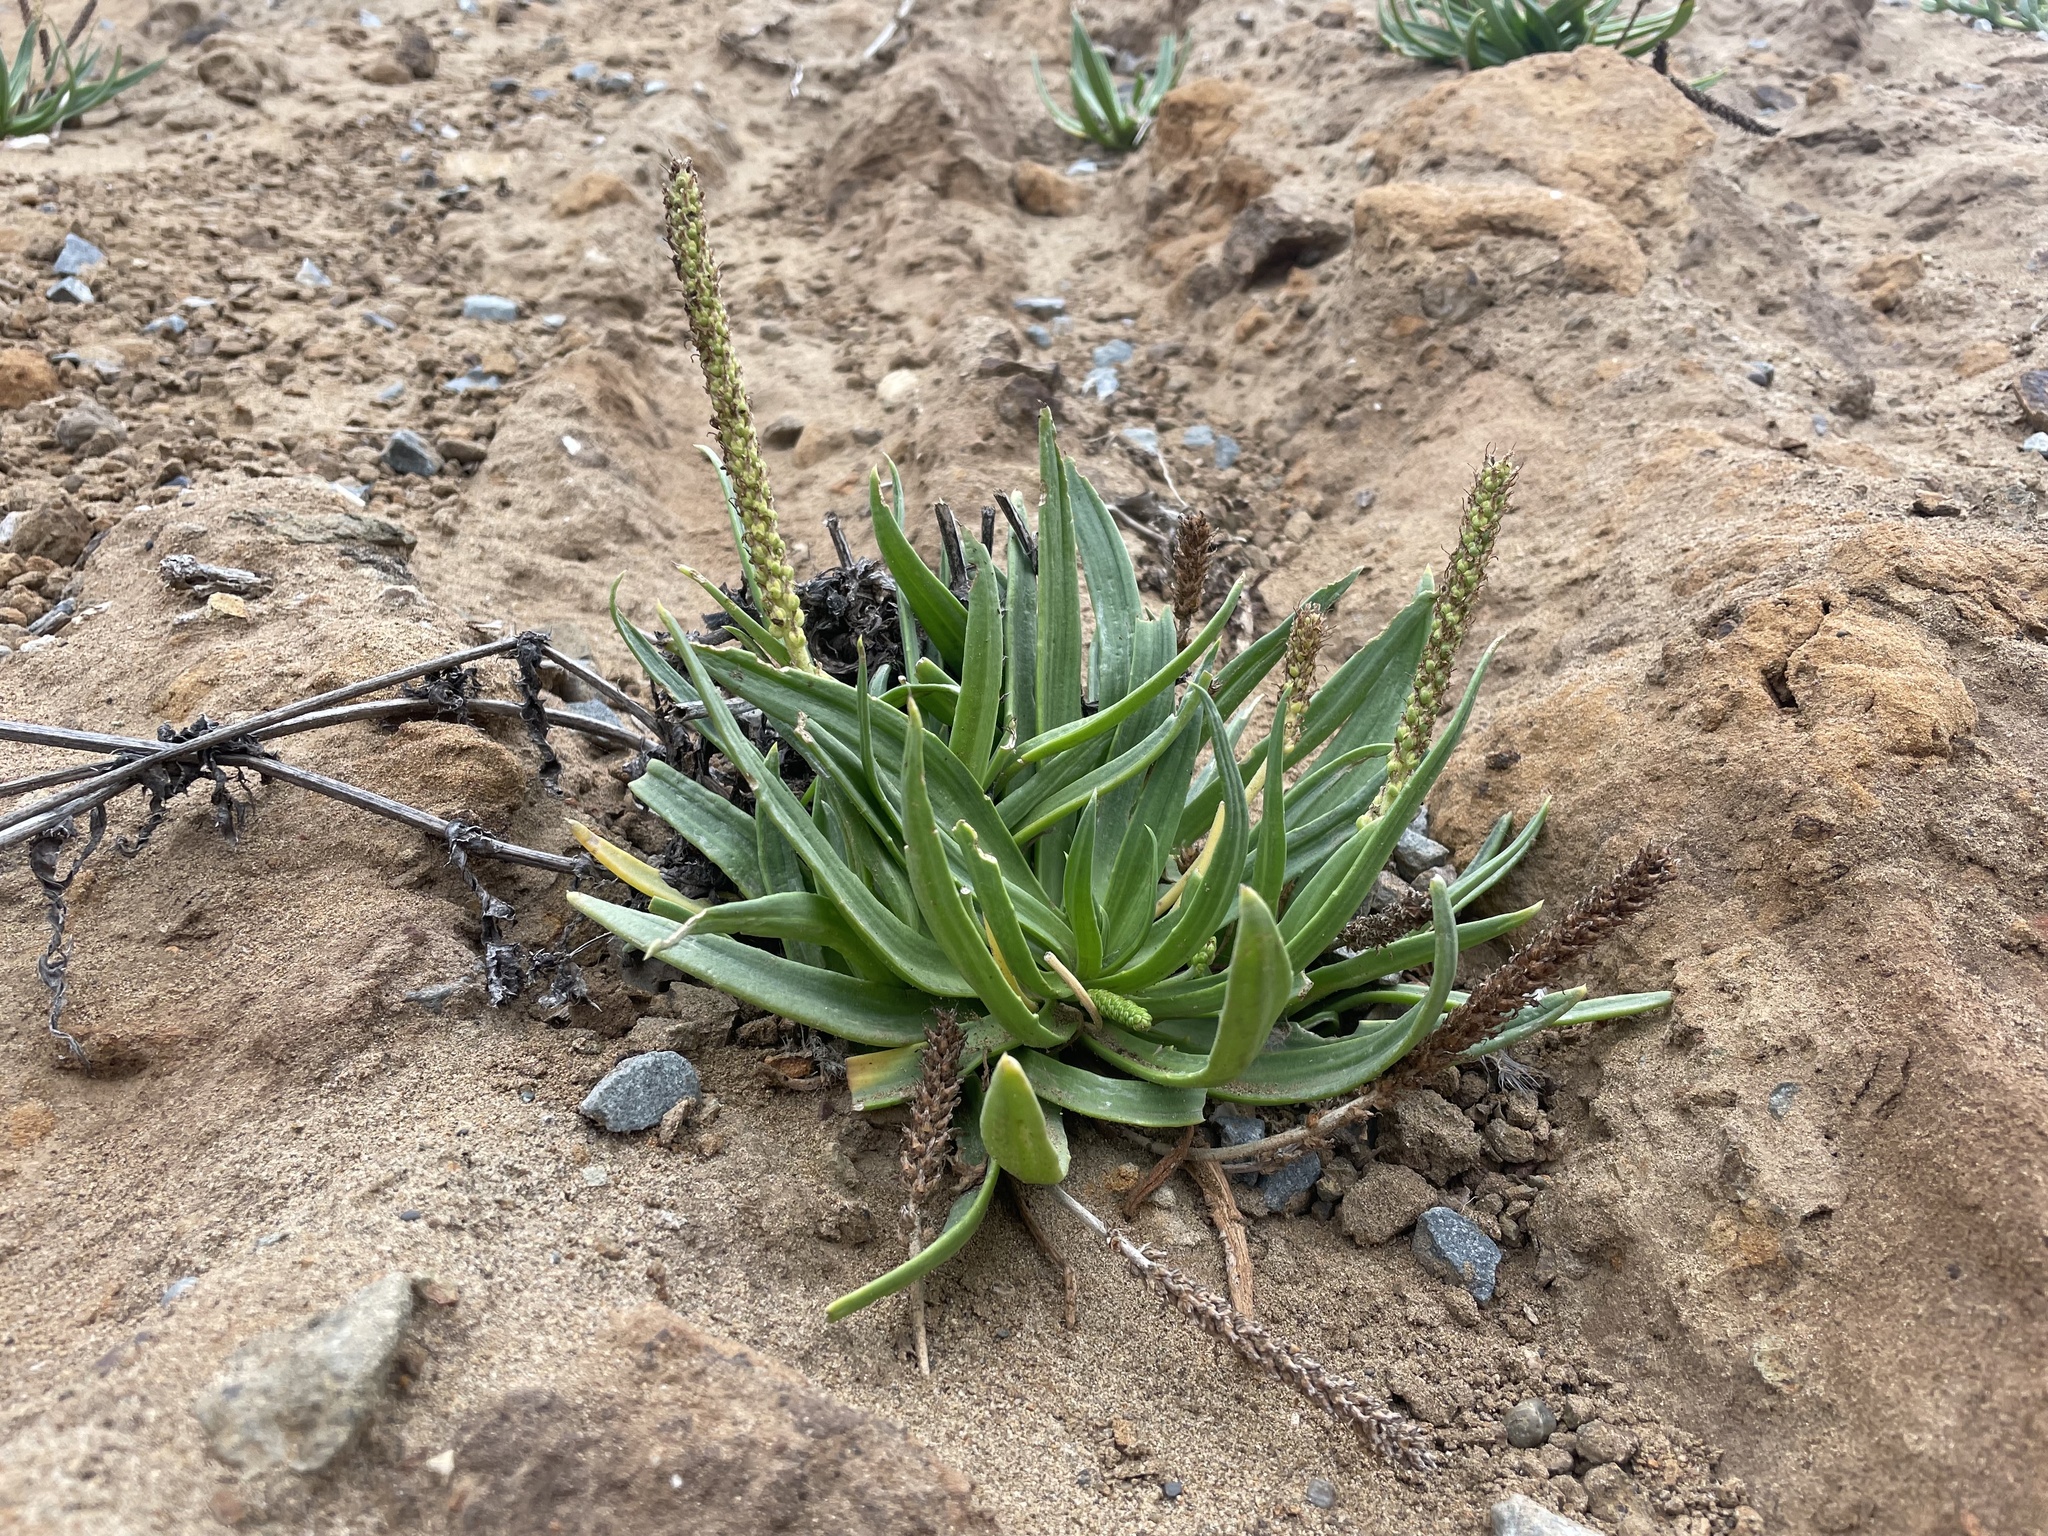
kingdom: Plantae
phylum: Tracheophyta
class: Magnoliopsida
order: Lamiales
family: Plantaginaceae
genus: Plantago
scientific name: Plantago maritima
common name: Sea plantain
